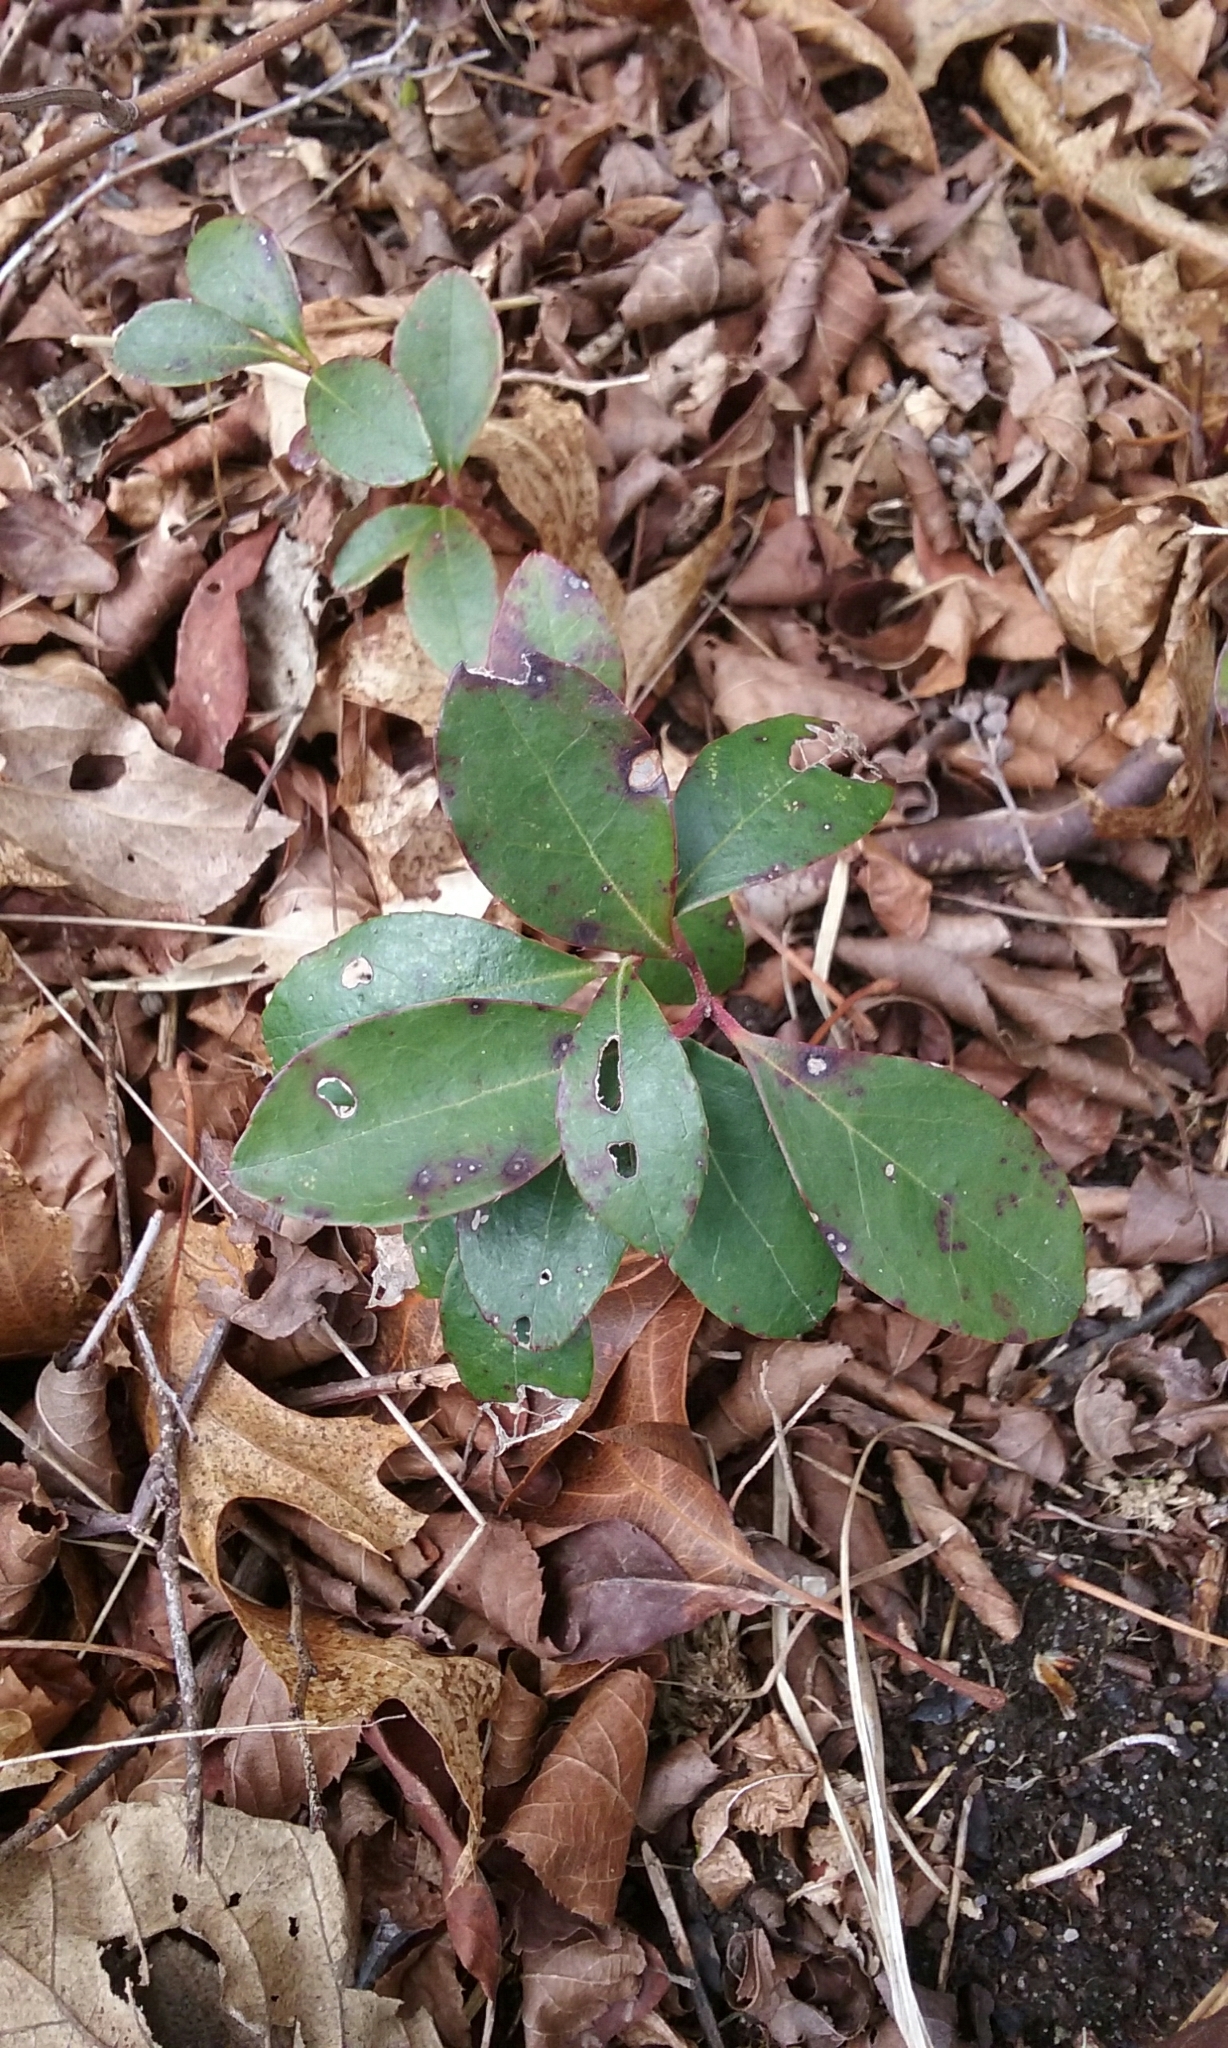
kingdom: Plantae
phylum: Tracheophyta
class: Magnoliopsida
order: Ericales
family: Ericaceae
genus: Gaultheria
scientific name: Gaultheria procumbens
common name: Checkerberry
